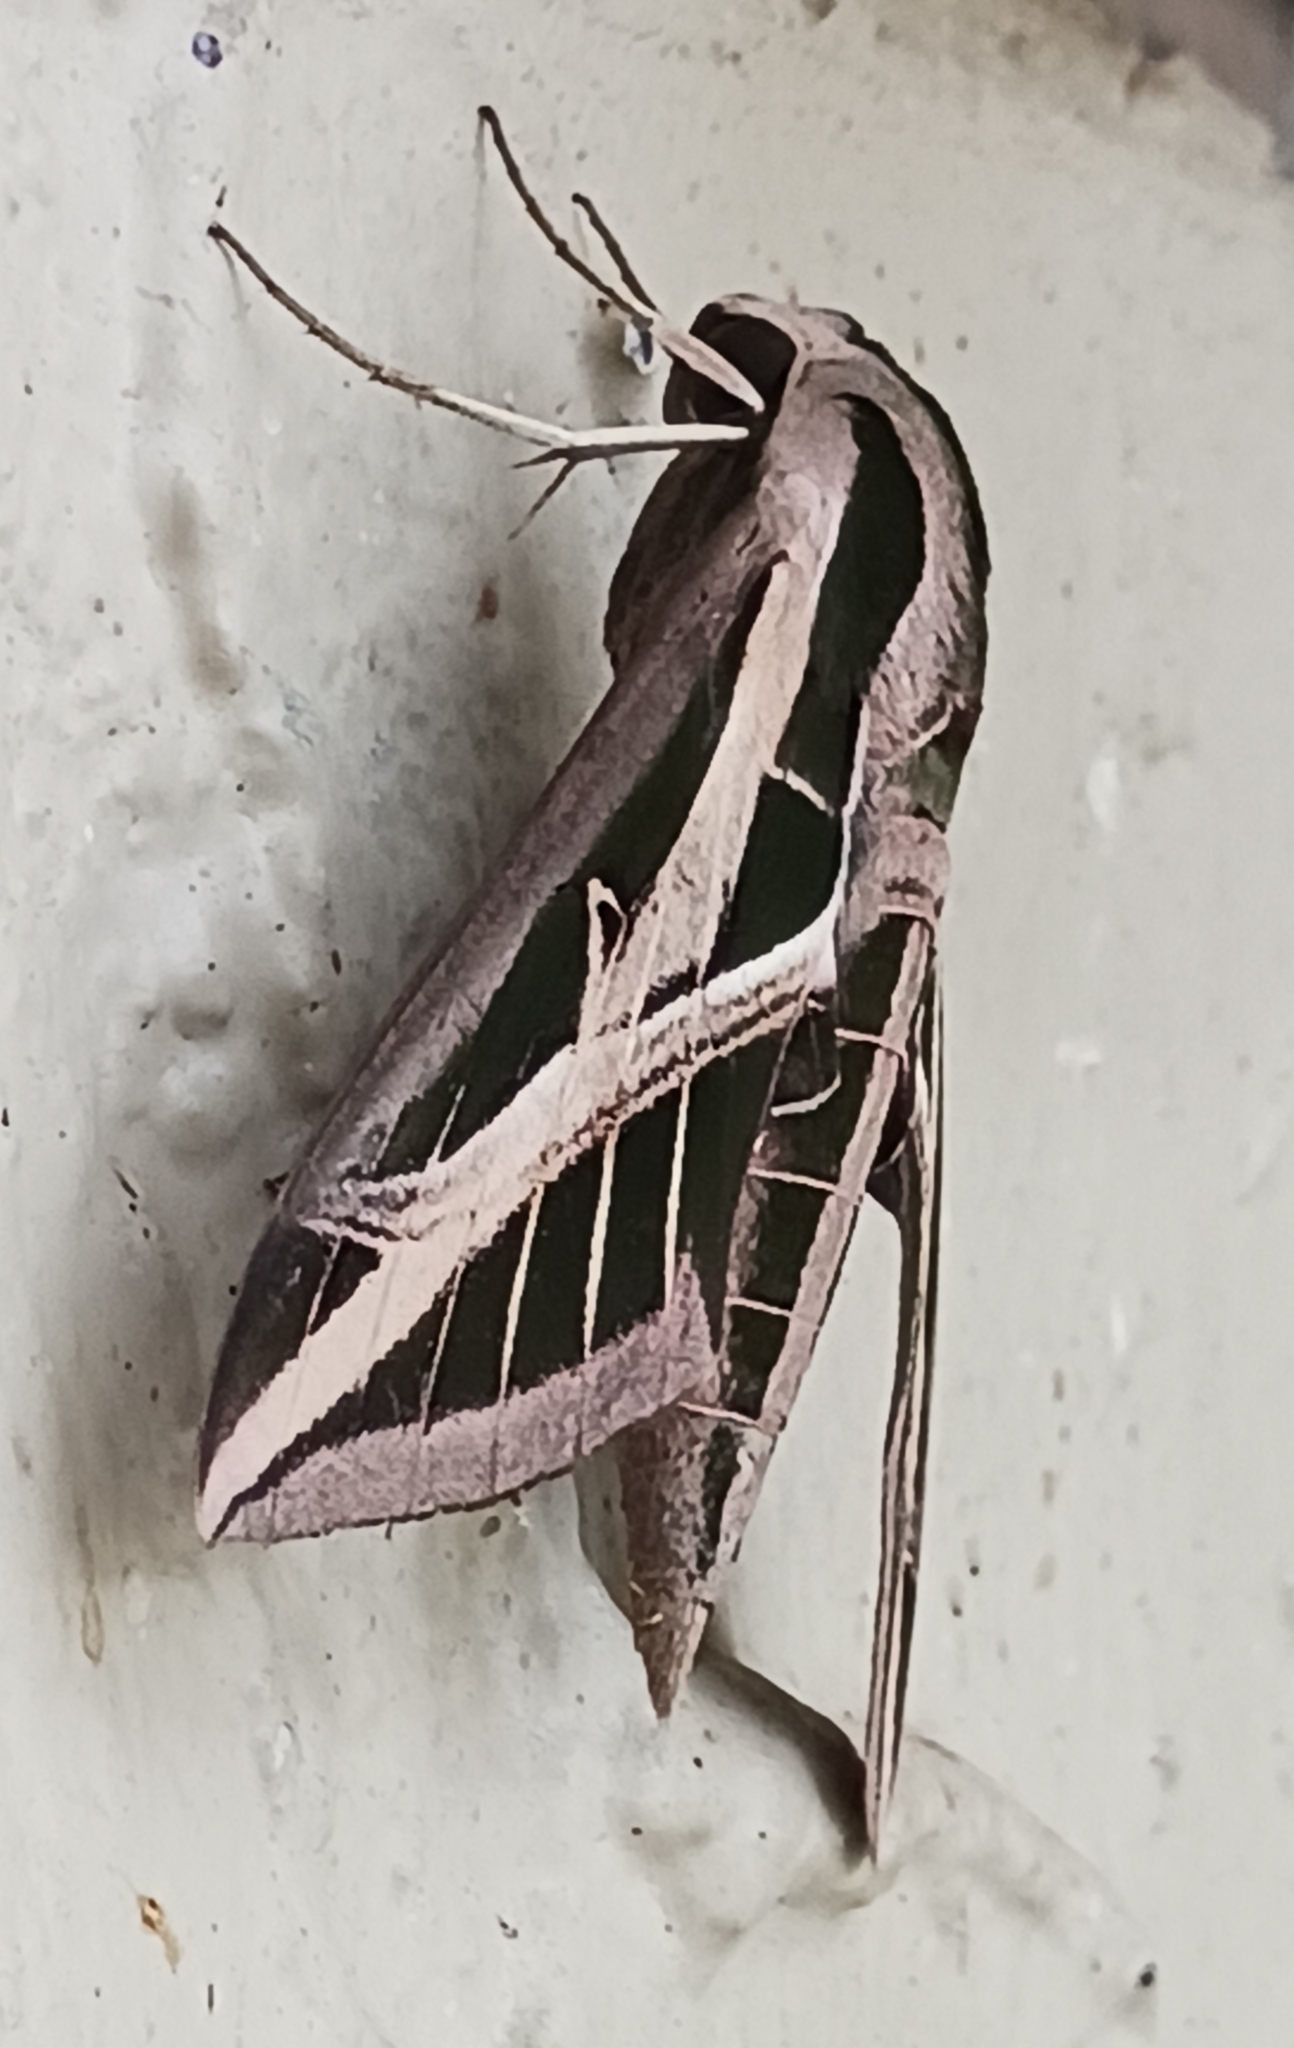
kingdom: Animalia
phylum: Arthropoda
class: Insecta
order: Lepidoptera
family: Sphingidae
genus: Eumorpha
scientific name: Eumorpha fasciatus
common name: Banded sphinx
